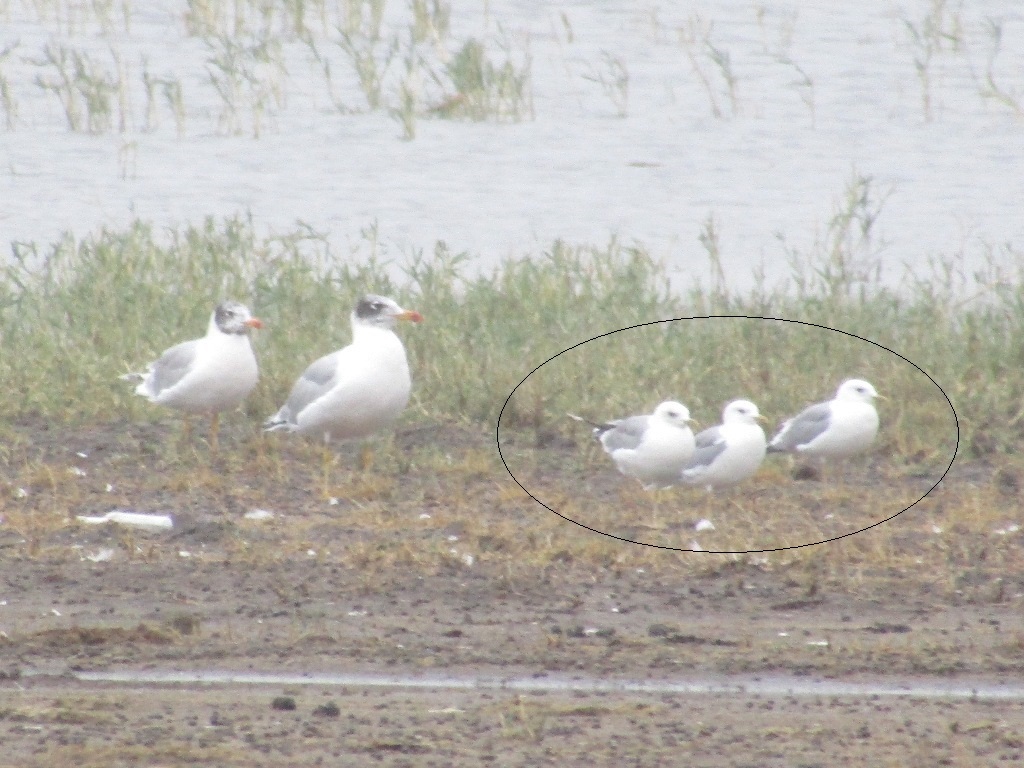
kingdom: Animalia
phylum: Chordata
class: Aves
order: Charadriiformes
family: Laridae
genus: Larus
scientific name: Larus canus
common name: Mew gull
